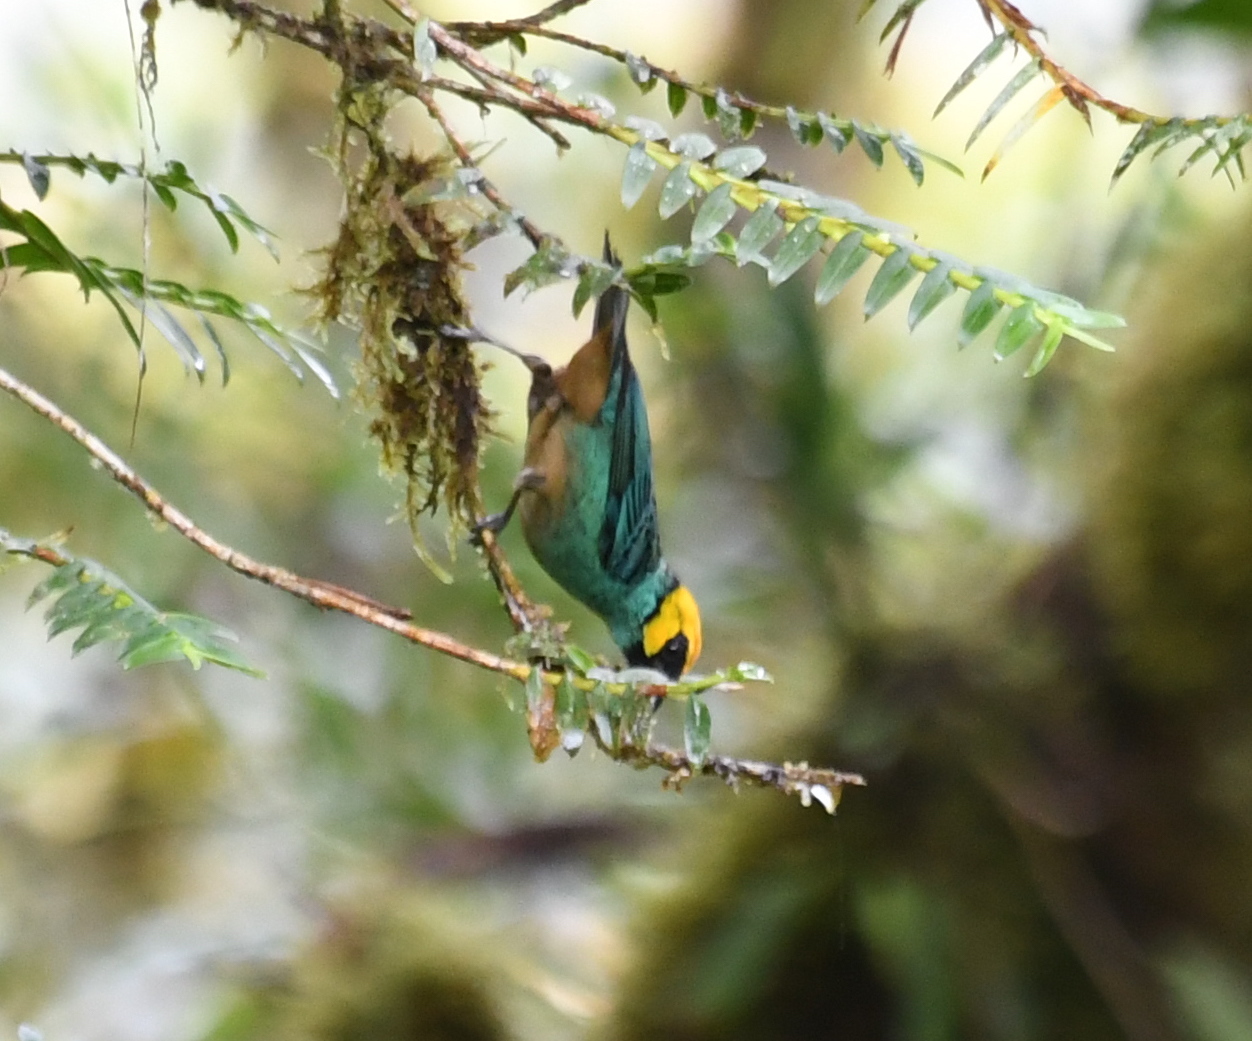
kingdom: Animalia
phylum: Chordata
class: Aves
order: Passeriformes
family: Thraupidae
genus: Tangara
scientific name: Tangara xanthocephala
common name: Saffron-crowned tanager
